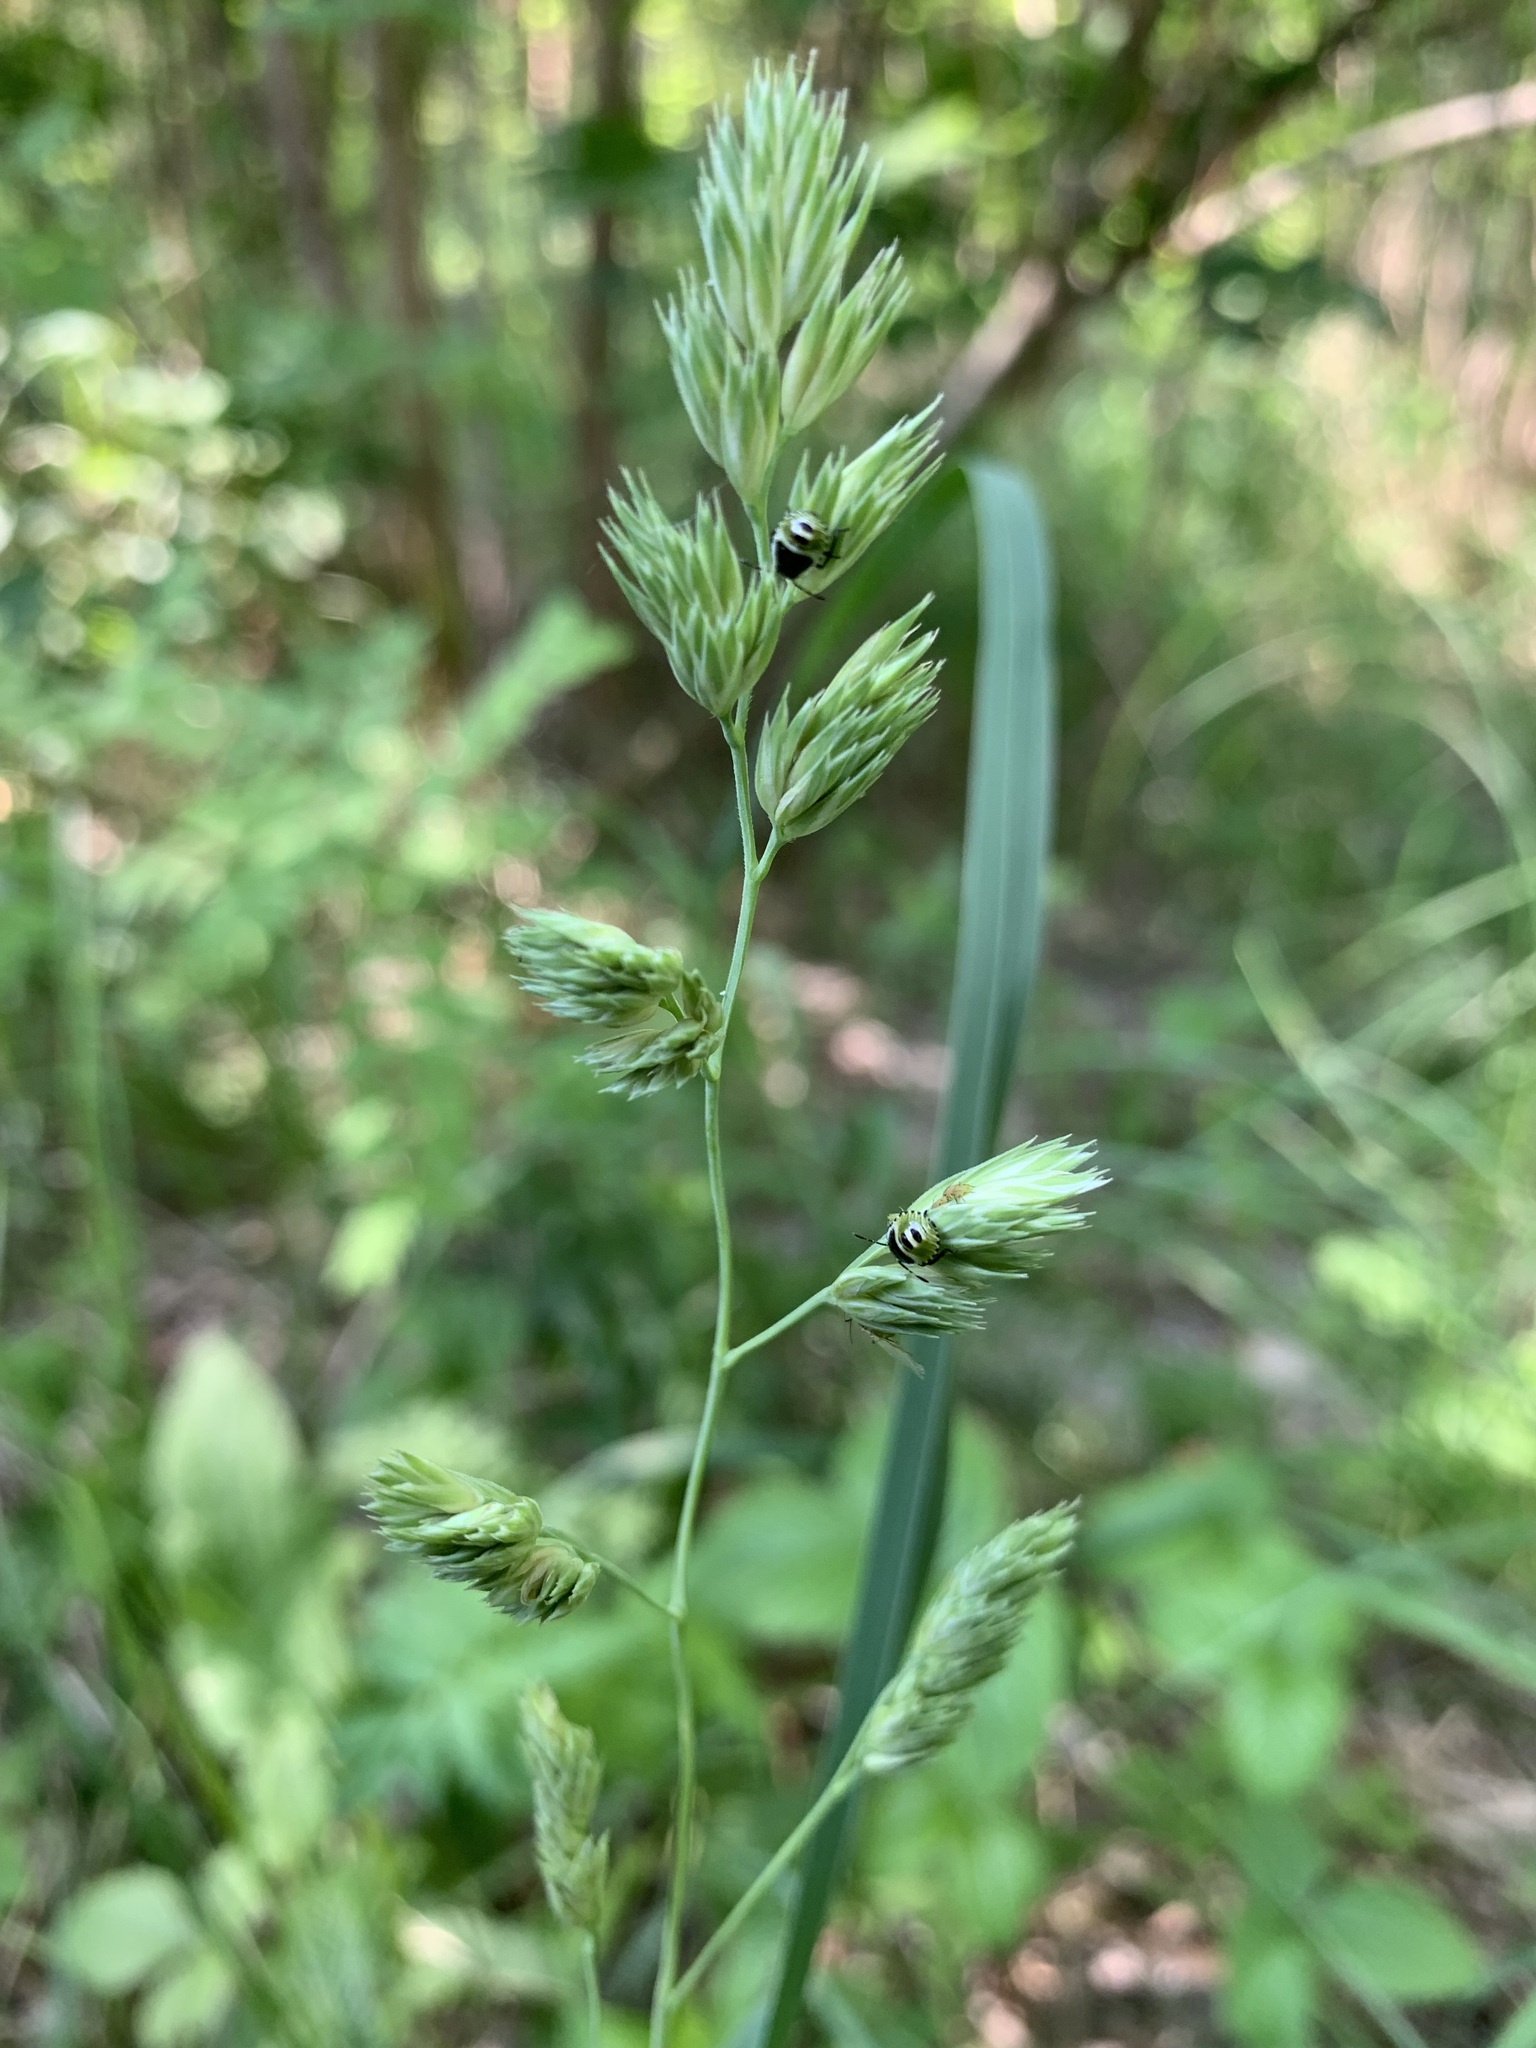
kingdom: Plantae
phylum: Tracheophyta
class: Liliopsida
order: Poales
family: Poaceae
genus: Dactylis
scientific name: Dactylis glomerata
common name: Orchardgrass
